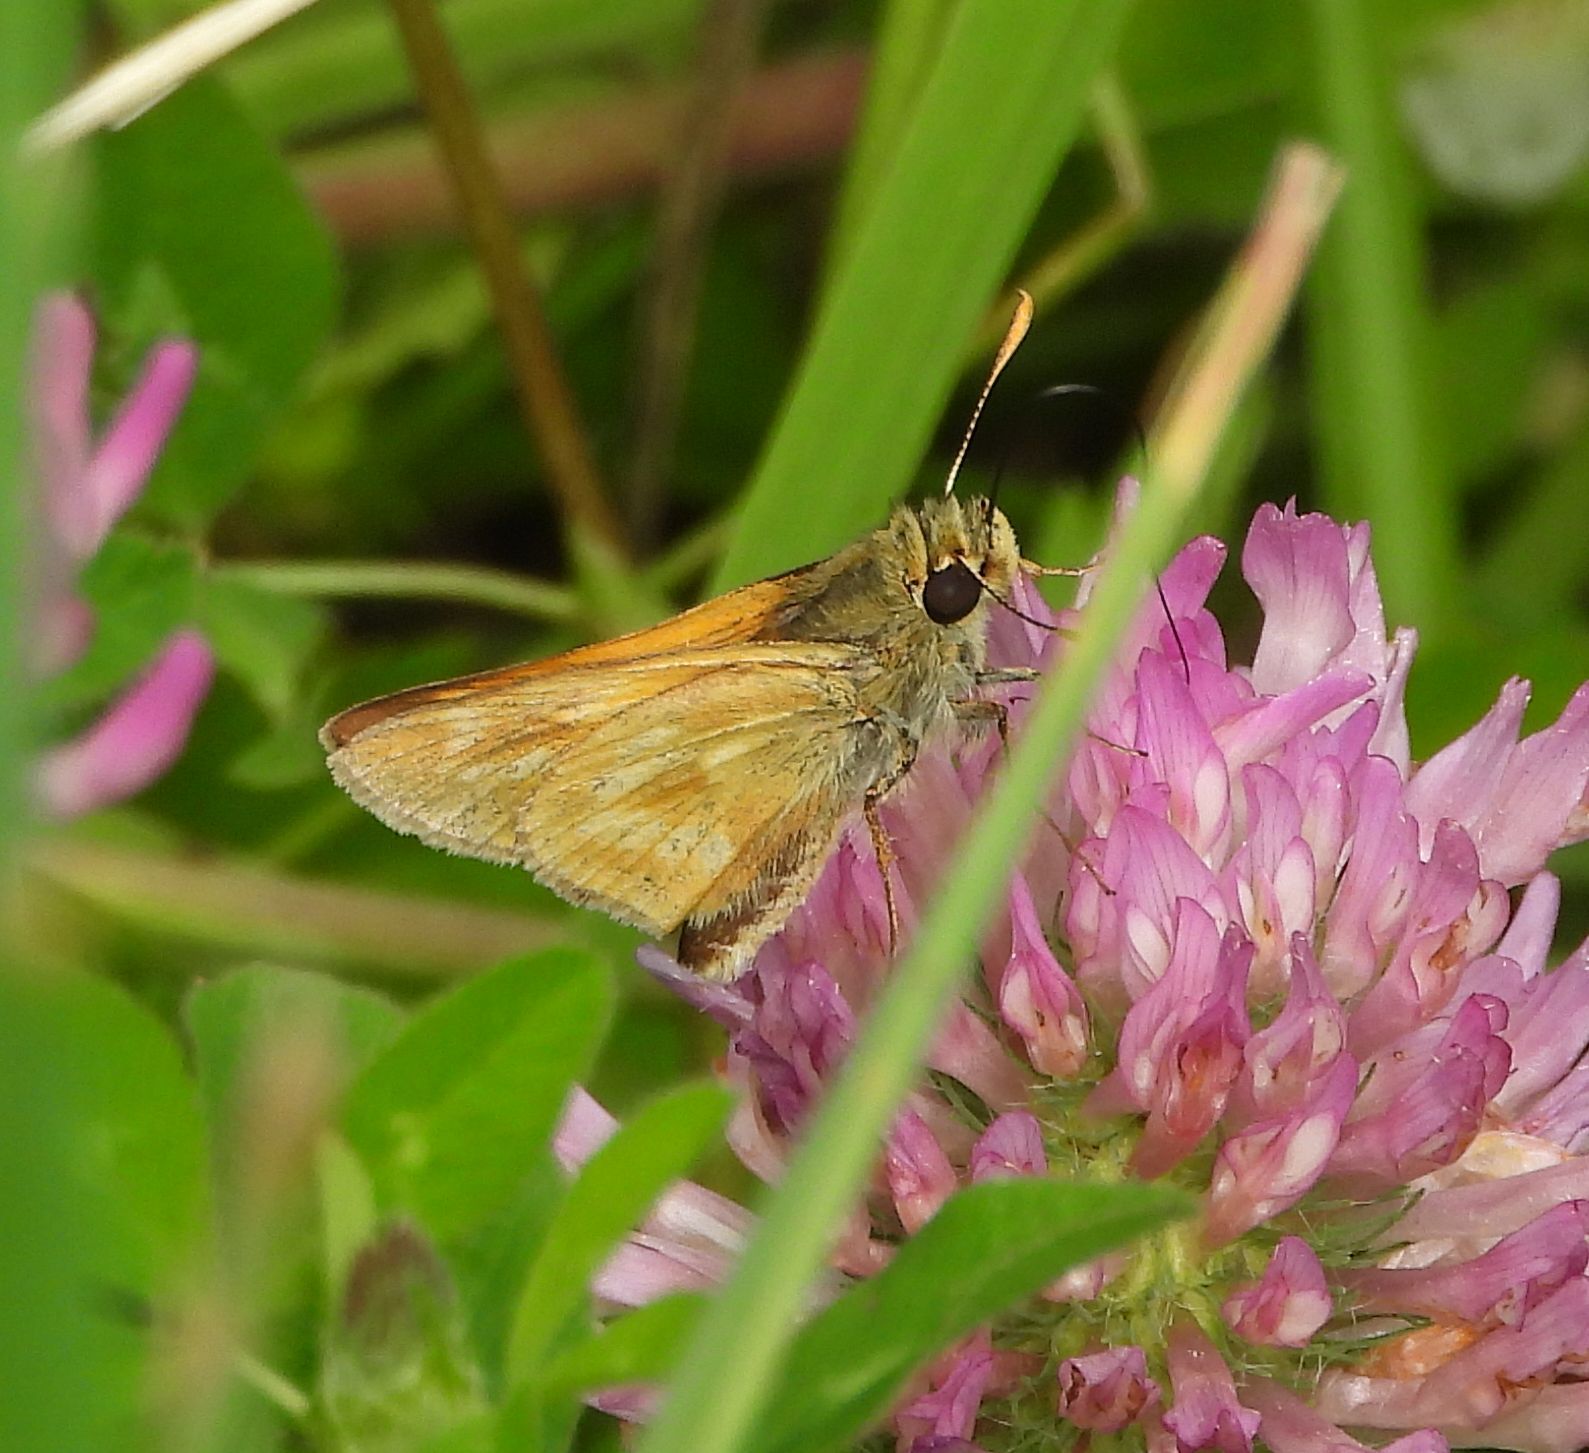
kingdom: Animalia
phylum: Arthropoda
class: Insecta
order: Lepidoptera
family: Hesperiidae
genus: Hesperia
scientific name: Hesperia sassacus
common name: Indian skipper
